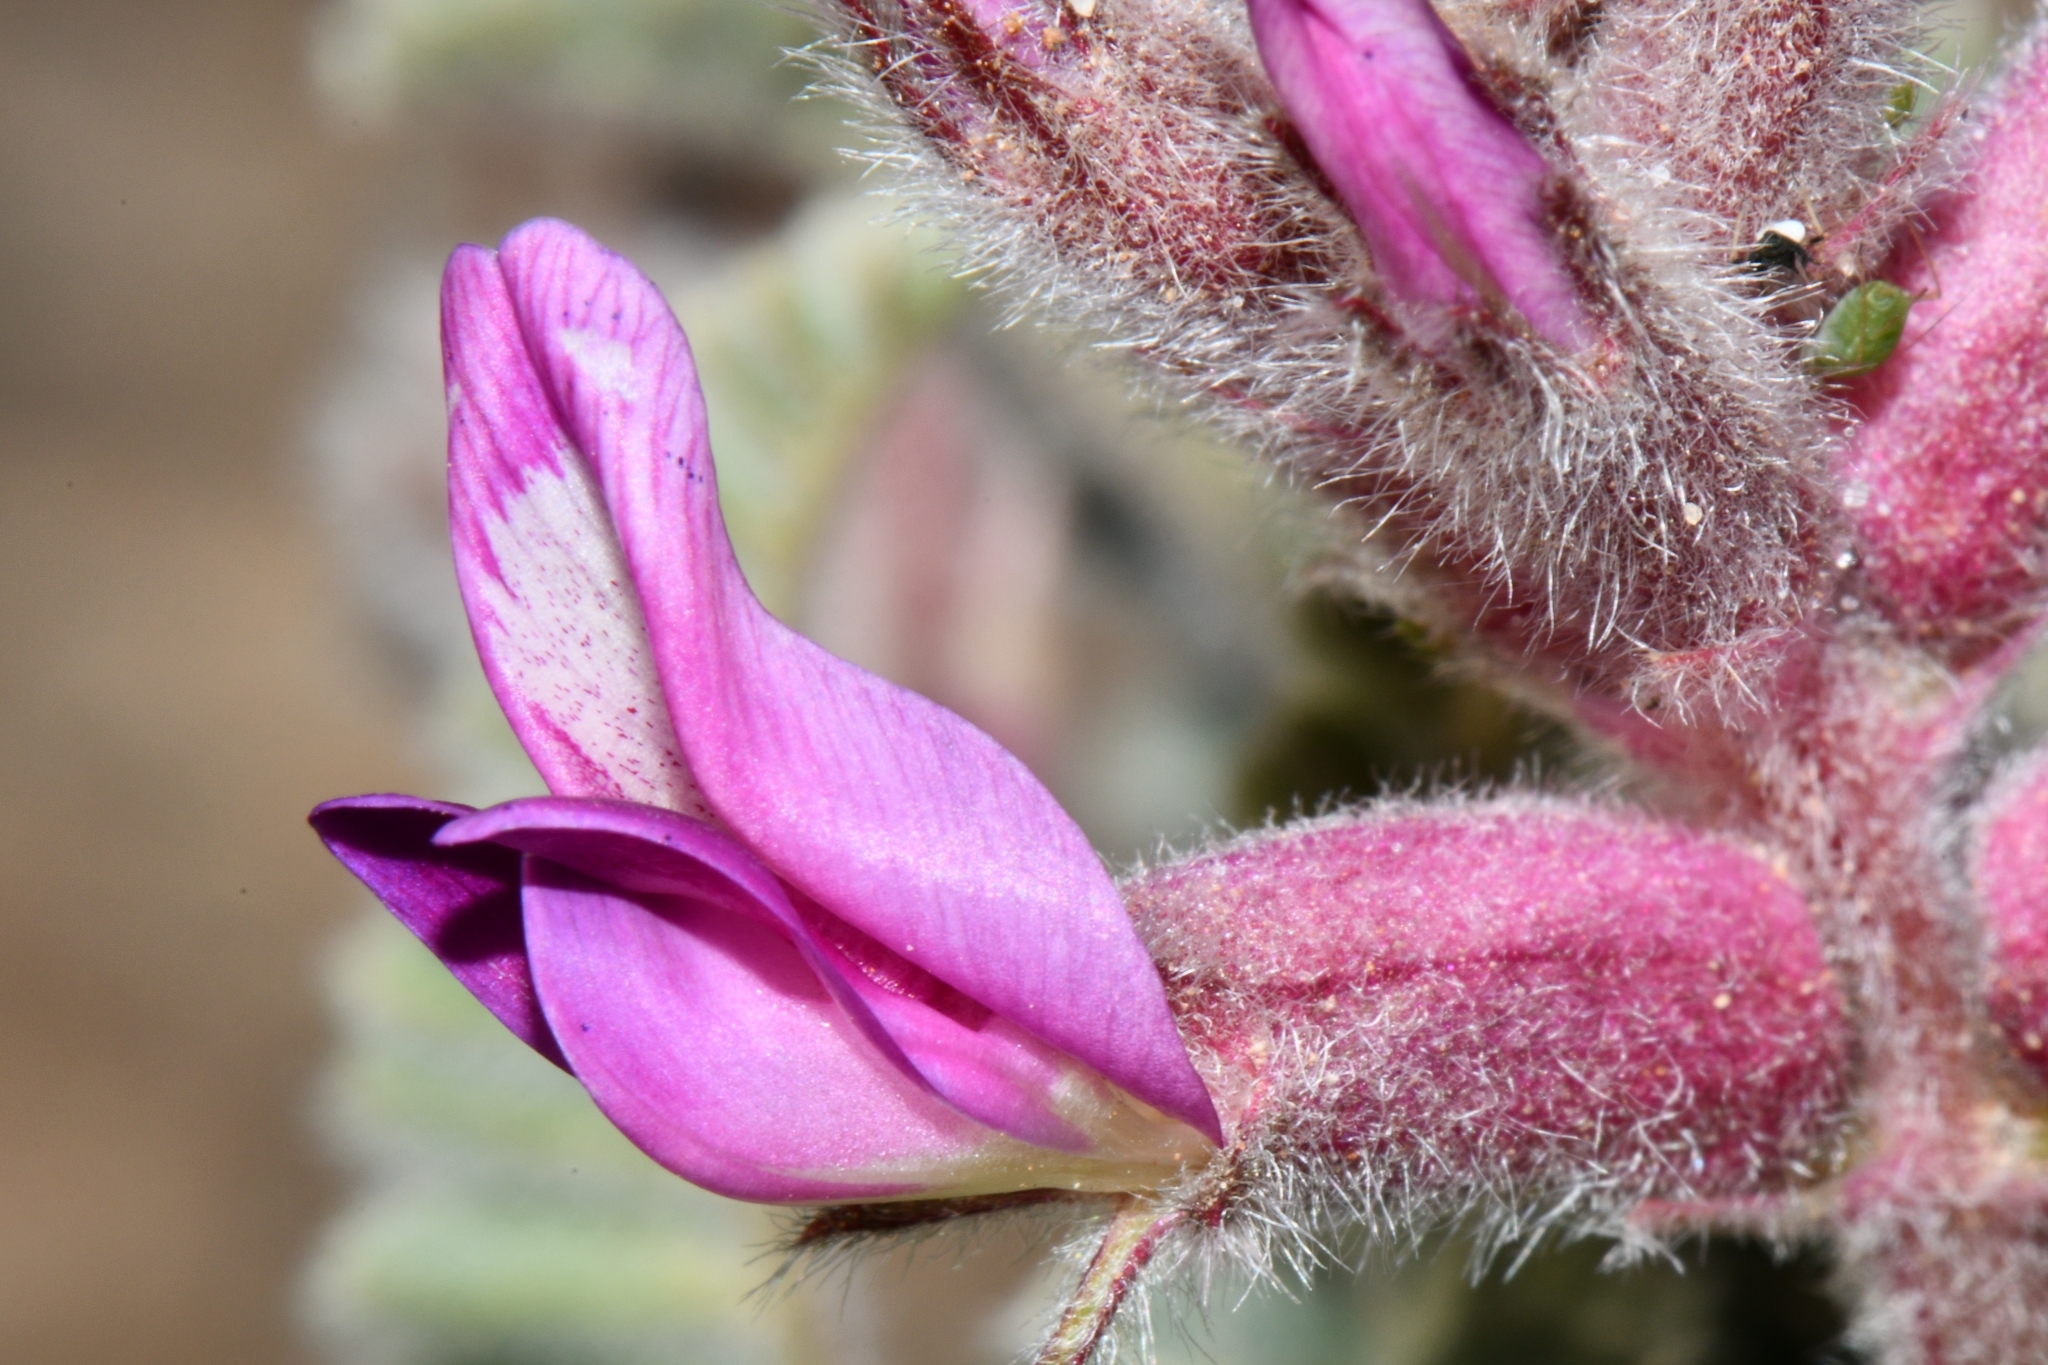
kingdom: Plantae
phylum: Tracheophyta
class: Magnoliopsida
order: Fabales
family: Fabaceae
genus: Astragalus
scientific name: Astragalus mollissimus
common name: Woolly locoweed
